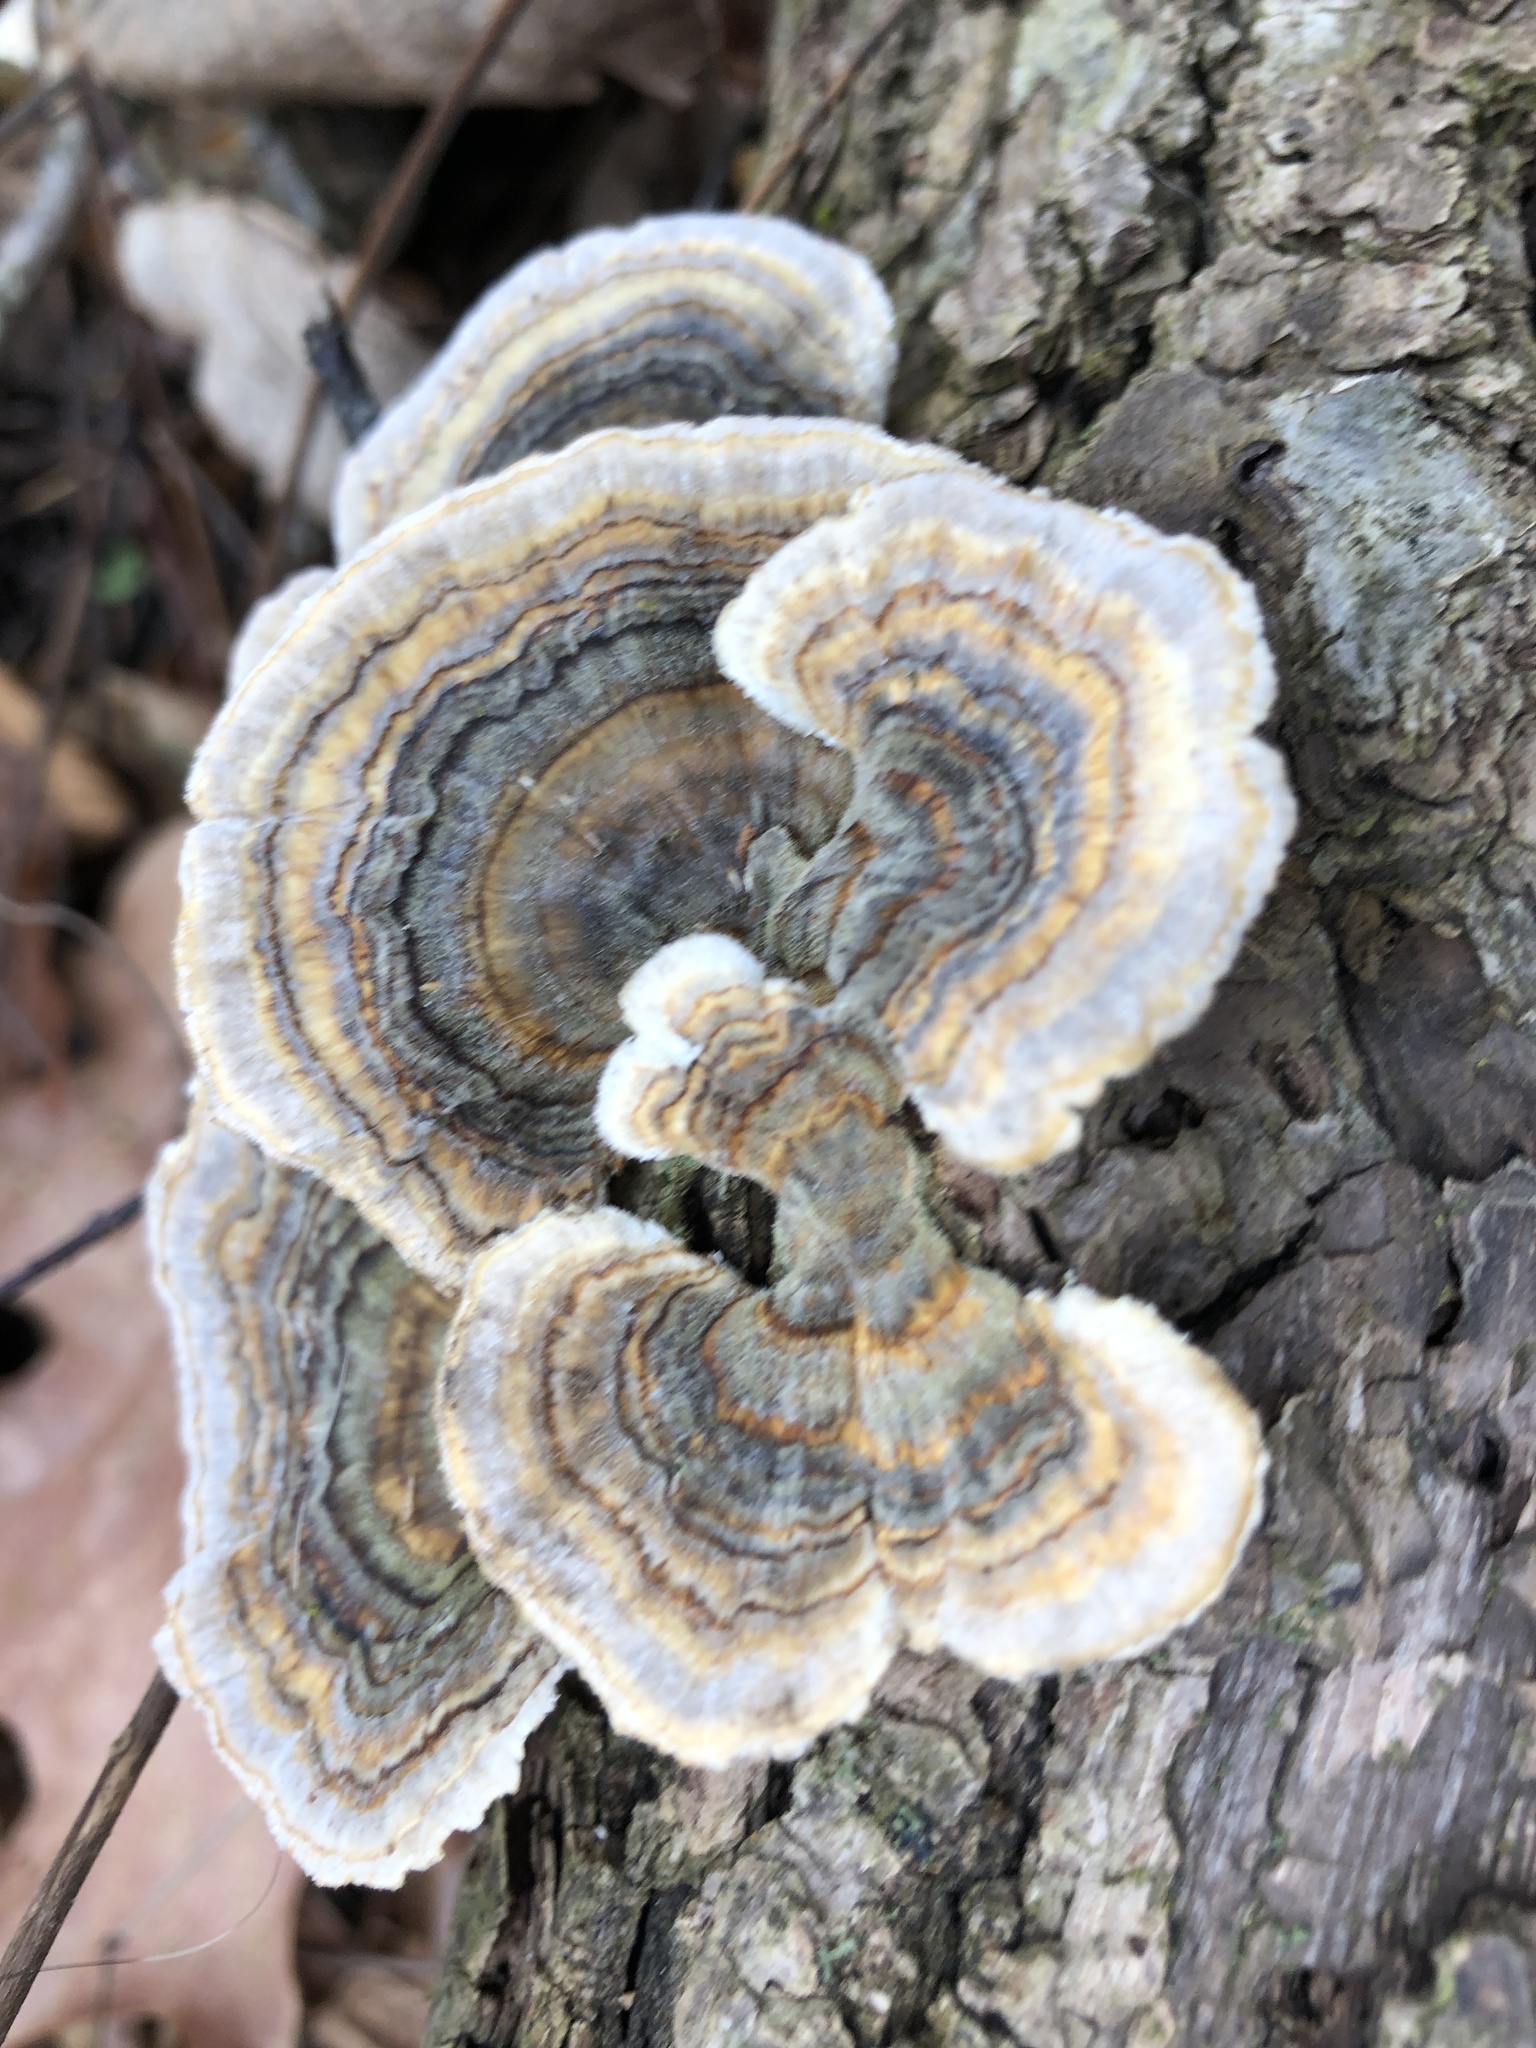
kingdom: Fungi
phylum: Basidiomycota
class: Agaricomycetes
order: Polyporales
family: Polyporaceae
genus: Trametes
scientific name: Trametes versicolor
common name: Turkeytail
